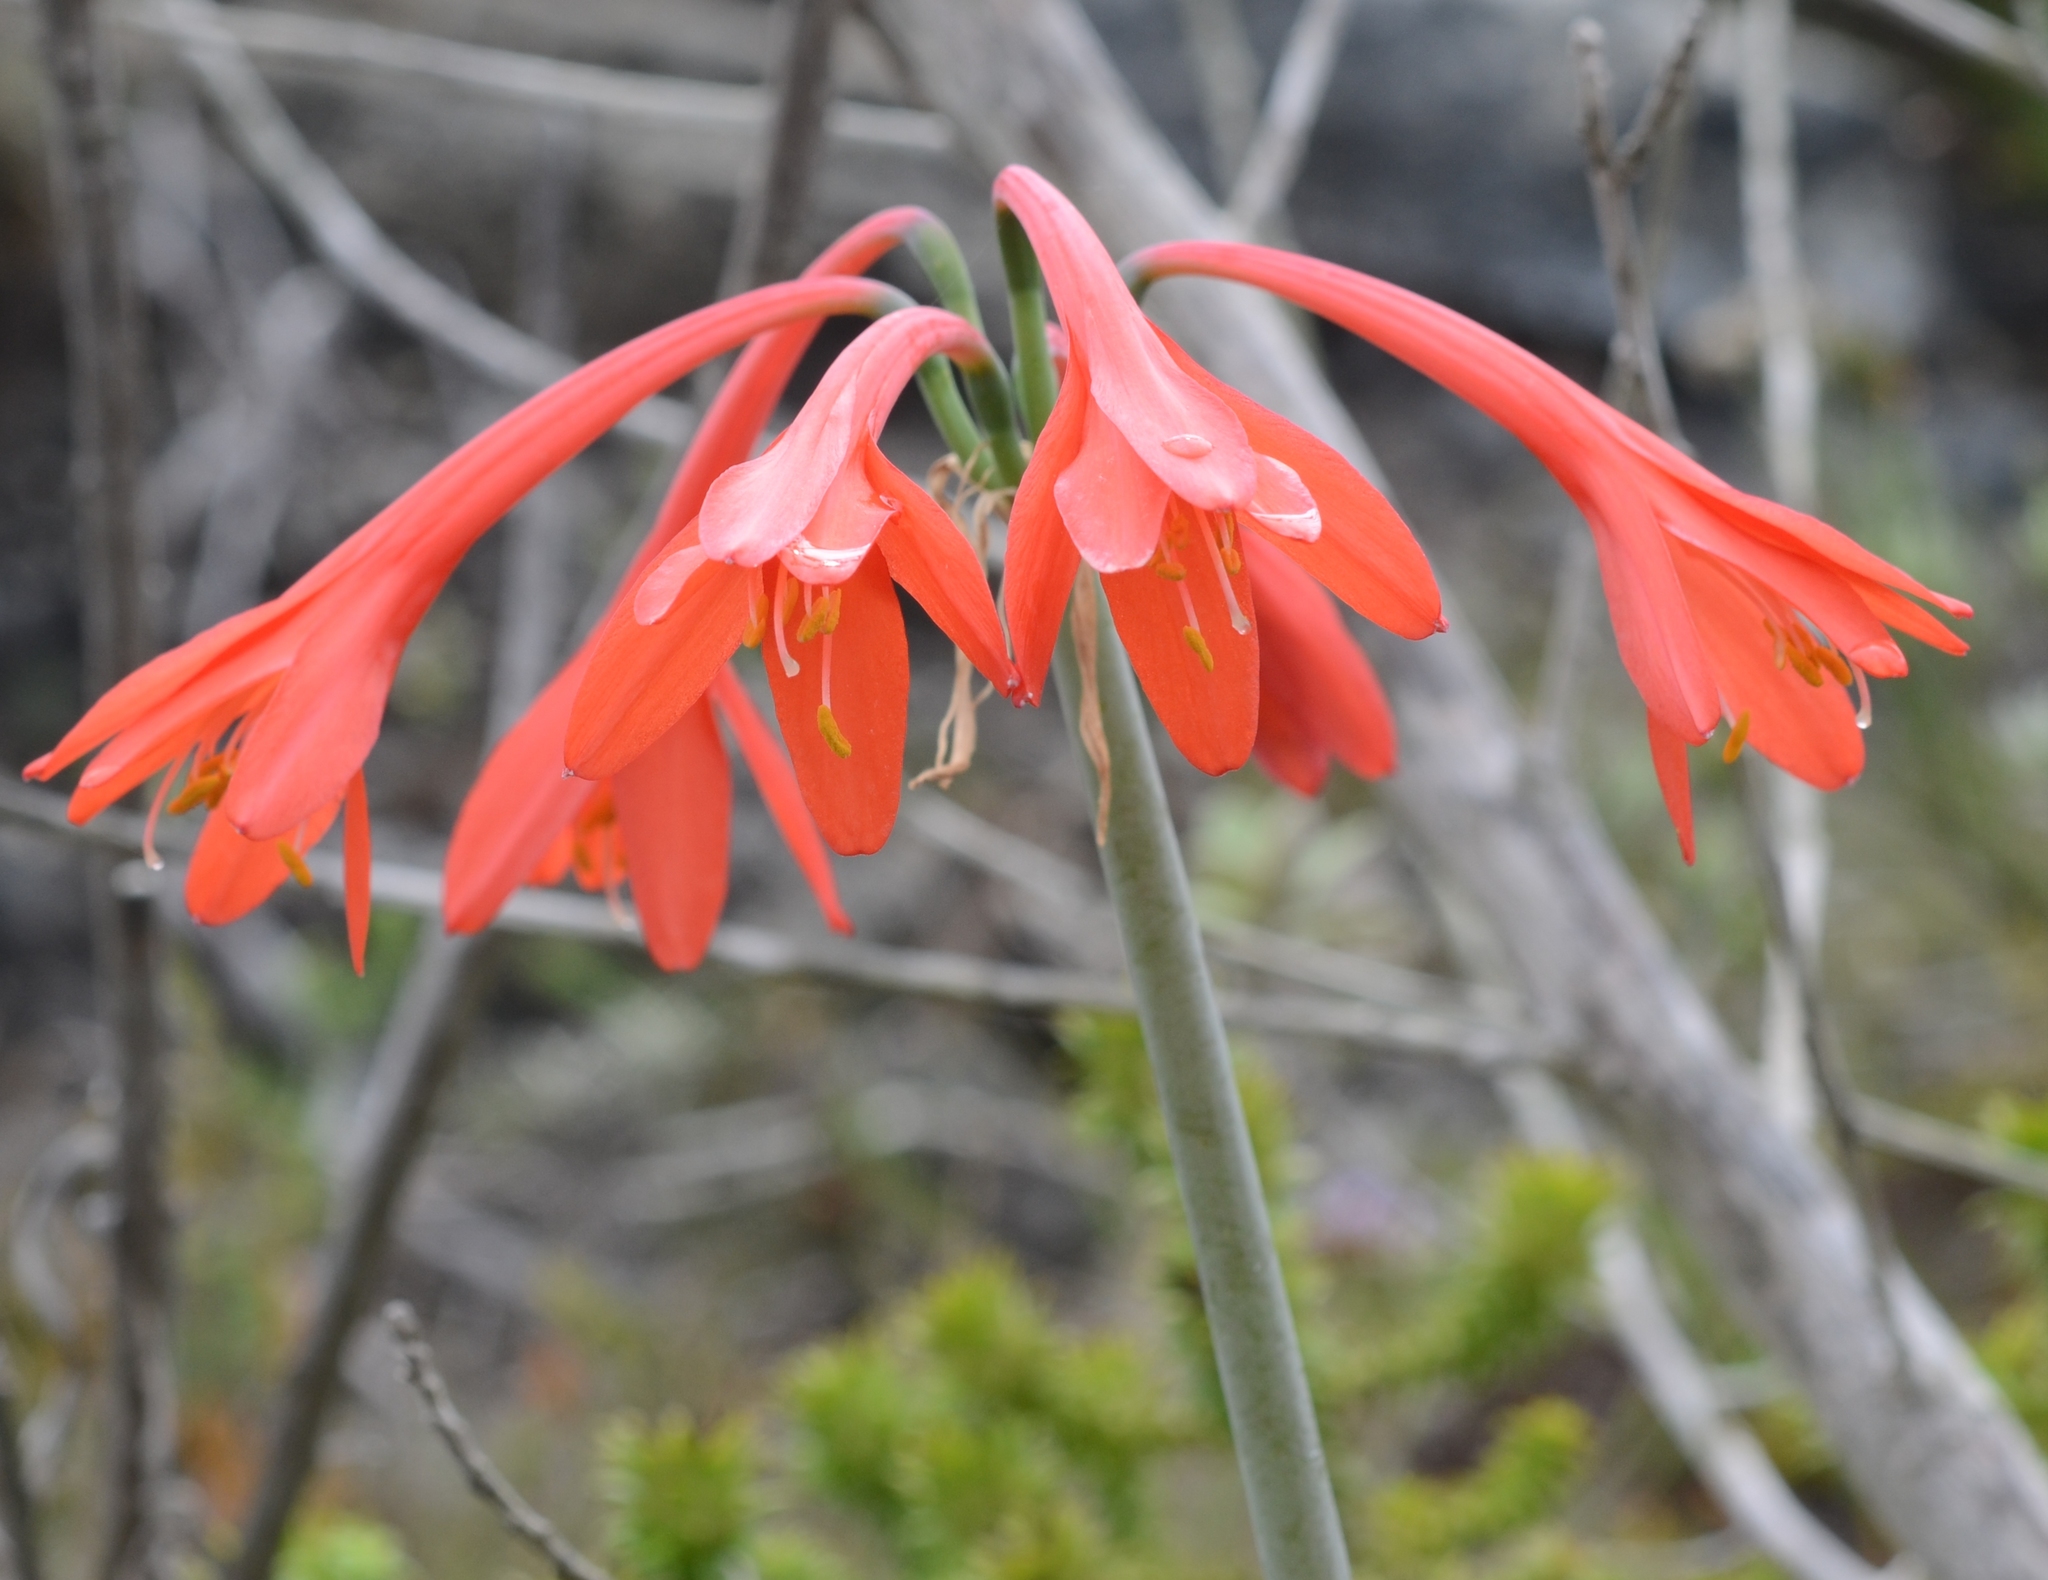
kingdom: Plantae
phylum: Tracheophyta
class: Liliopsida
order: Asparagales
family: Amaryllidaceae
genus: Cyrtanthus
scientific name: Cyrtanthus fergusoniae
